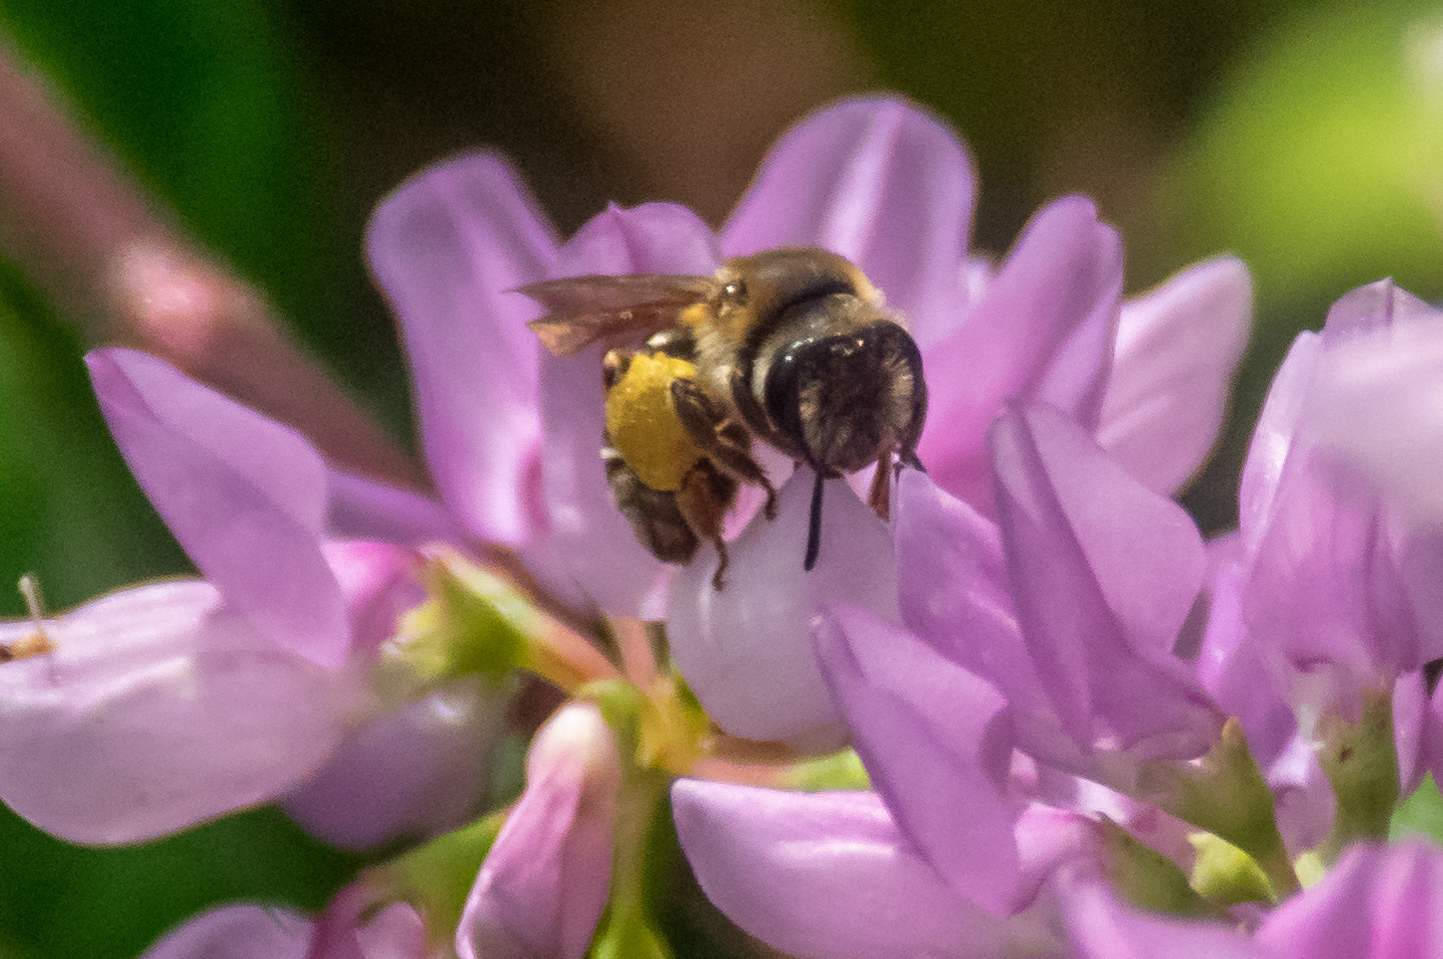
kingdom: Animalia
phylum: Arthropoda
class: Insecta
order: Hymenoptera
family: Andrenidae
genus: Andrena
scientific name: Andrena wilkella
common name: Wilke's mining bee
